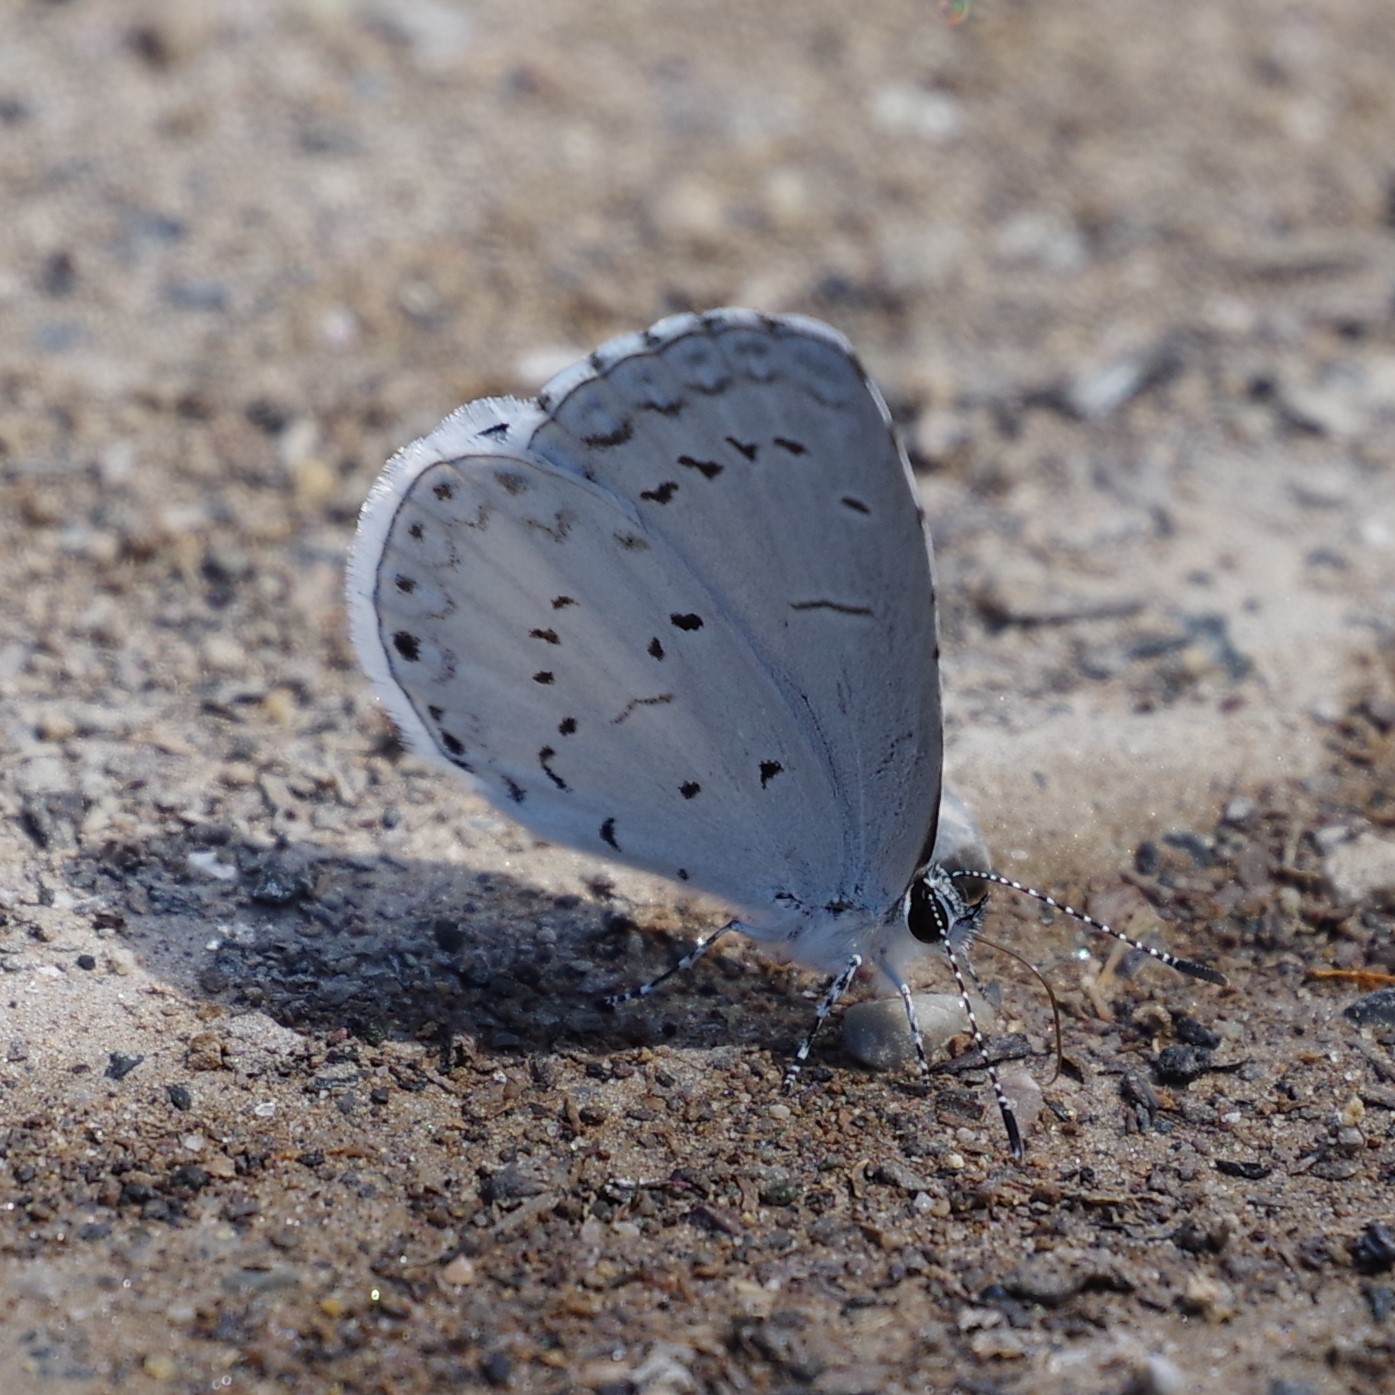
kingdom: Animalia
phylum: Arthropoda
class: Insecta
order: Lepidoptera
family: Lycaenidae
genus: Cyaniris
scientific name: Cyaniris neglecta
